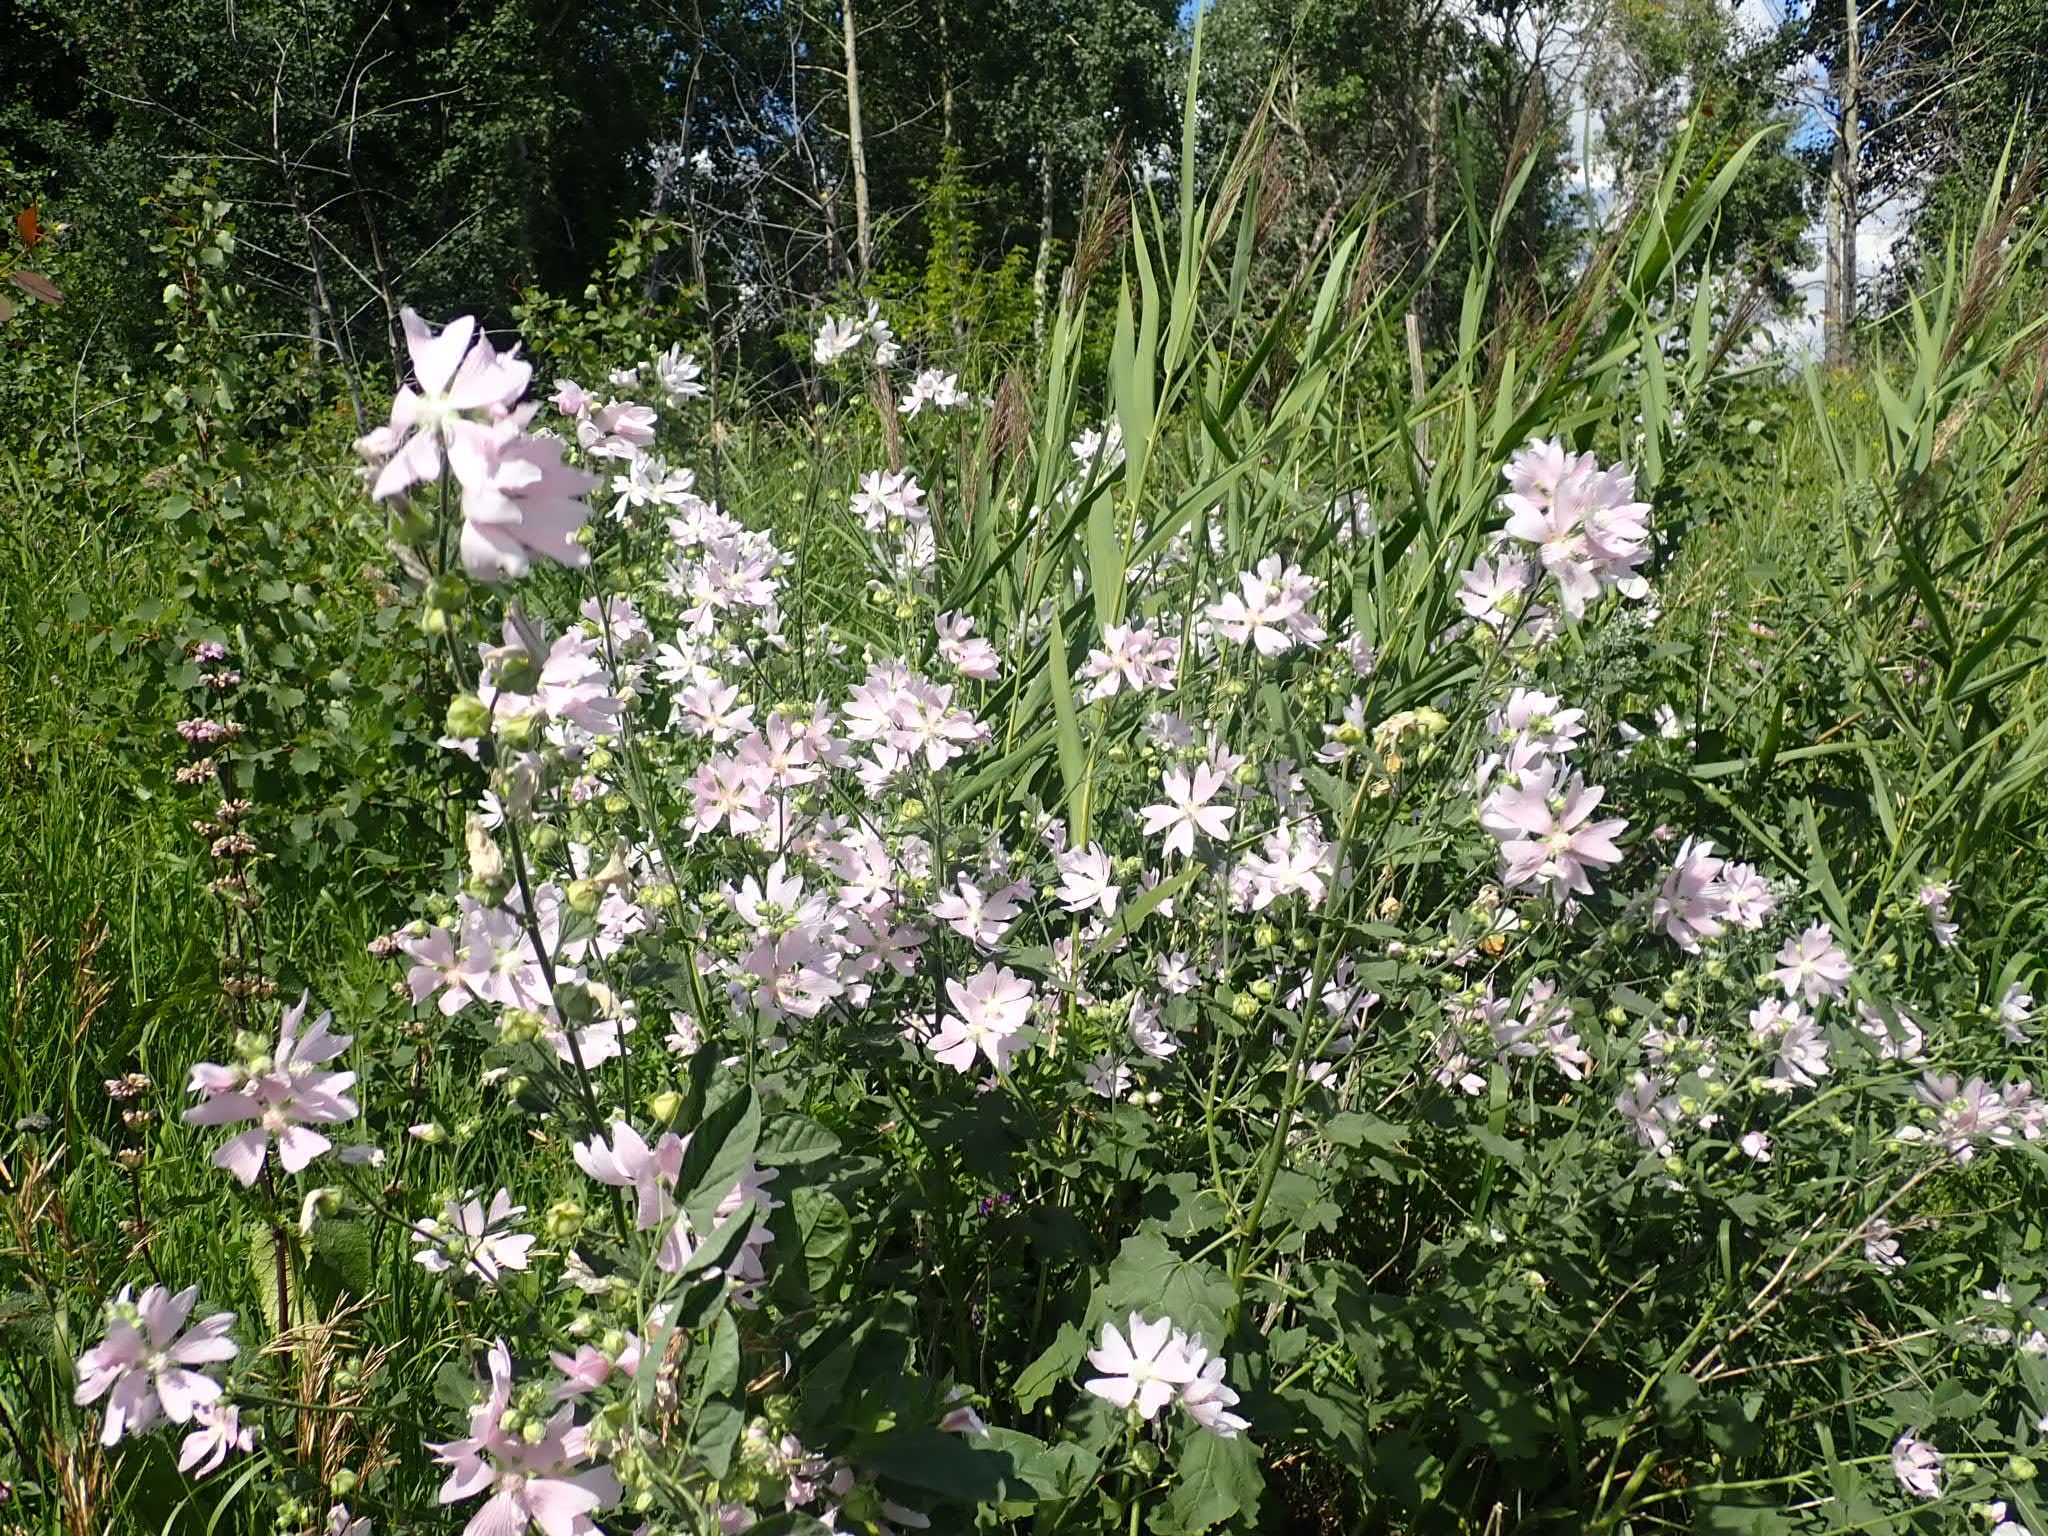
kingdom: Plantae
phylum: Tracheophyta
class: Magnoliopsida
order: Malvales
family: Malvaceae
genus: Malva
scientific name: Malva thuringiaca
